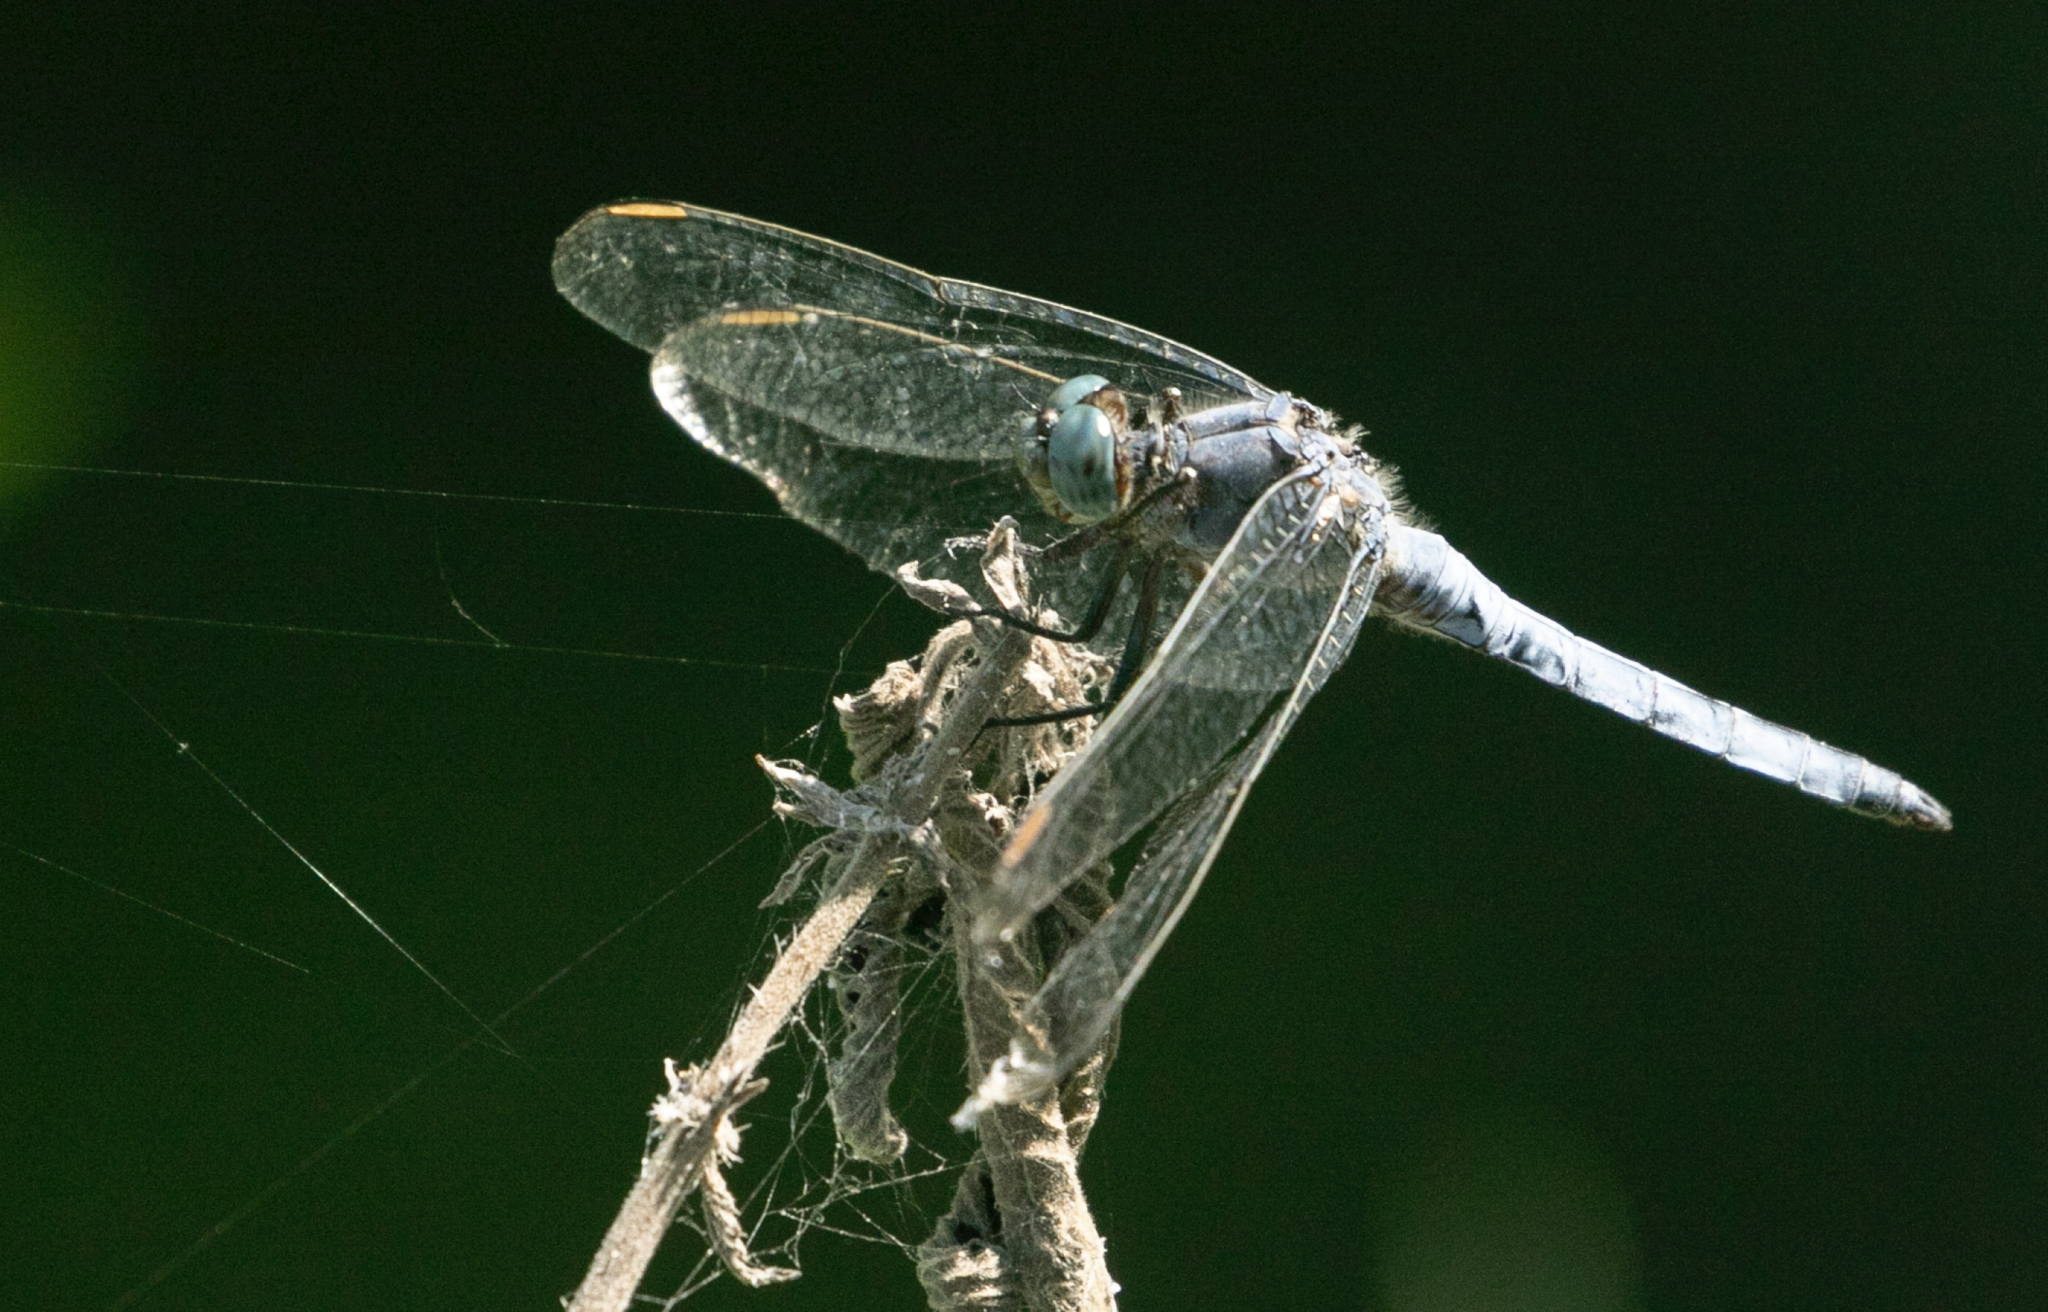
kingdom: Animalia
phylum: Arthropoda
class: Insecta
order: Odonata
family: Libellulidae
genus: Orthetrum
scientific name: Orthetrum coerulescens
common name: Keeled skimmer
